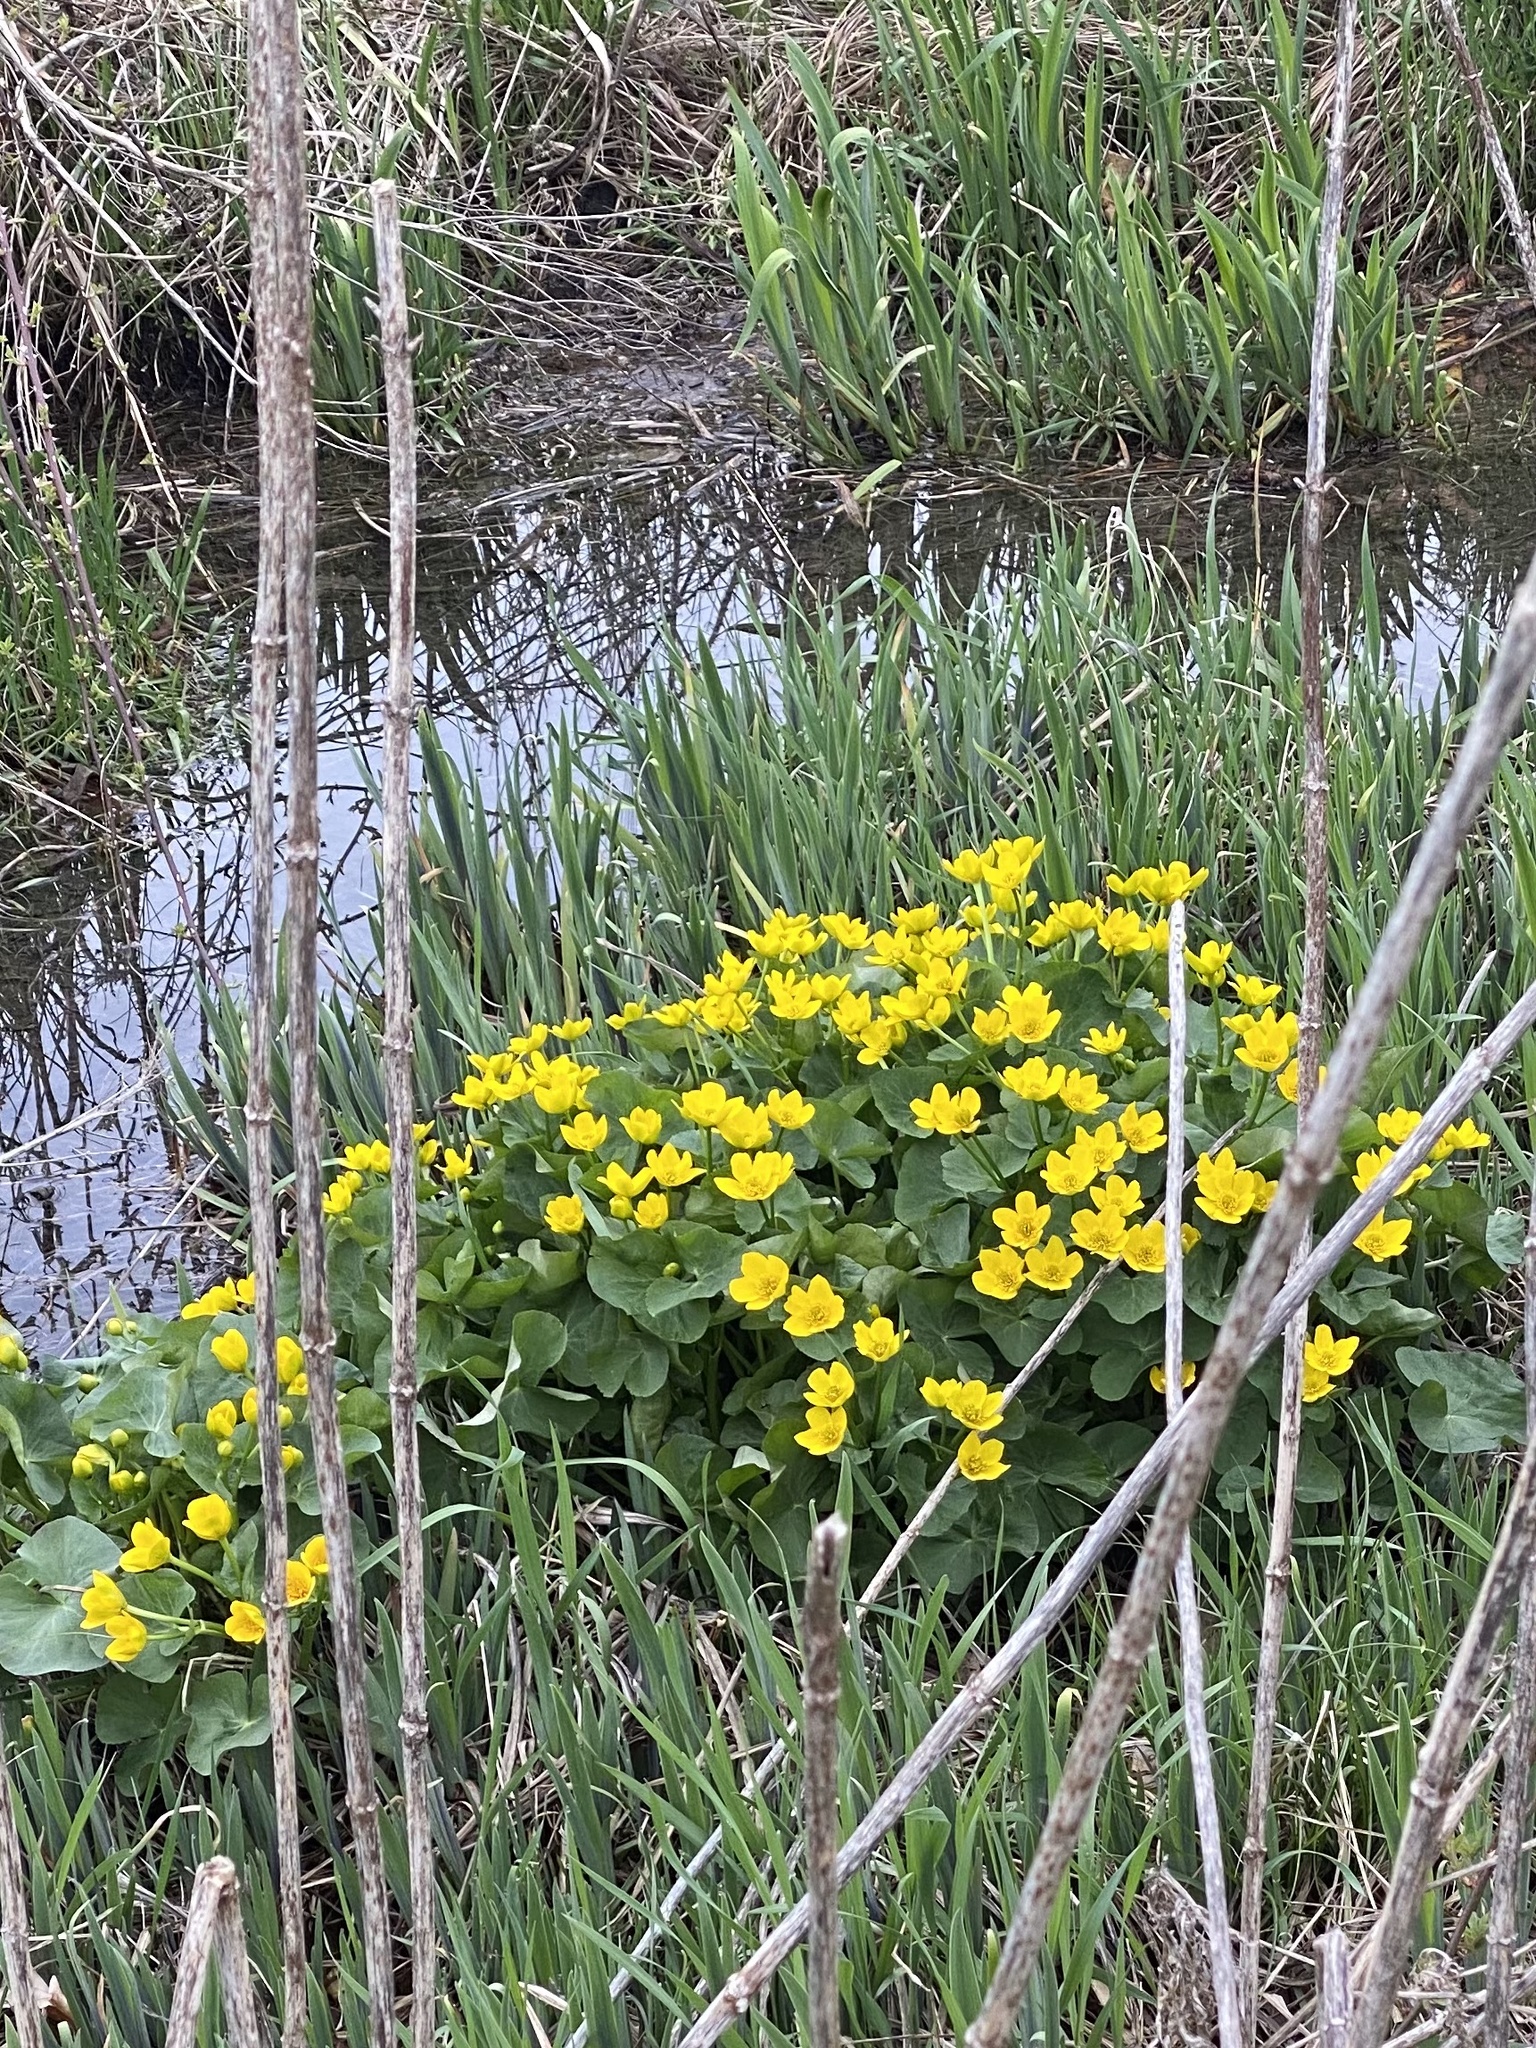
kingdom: Plantae
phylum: Tracheophyta
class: Magnoliopsida
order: Ranunculales
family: Ranunculaceae
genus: Caltha
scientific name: Caltha palustris
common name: Marsh marigold
